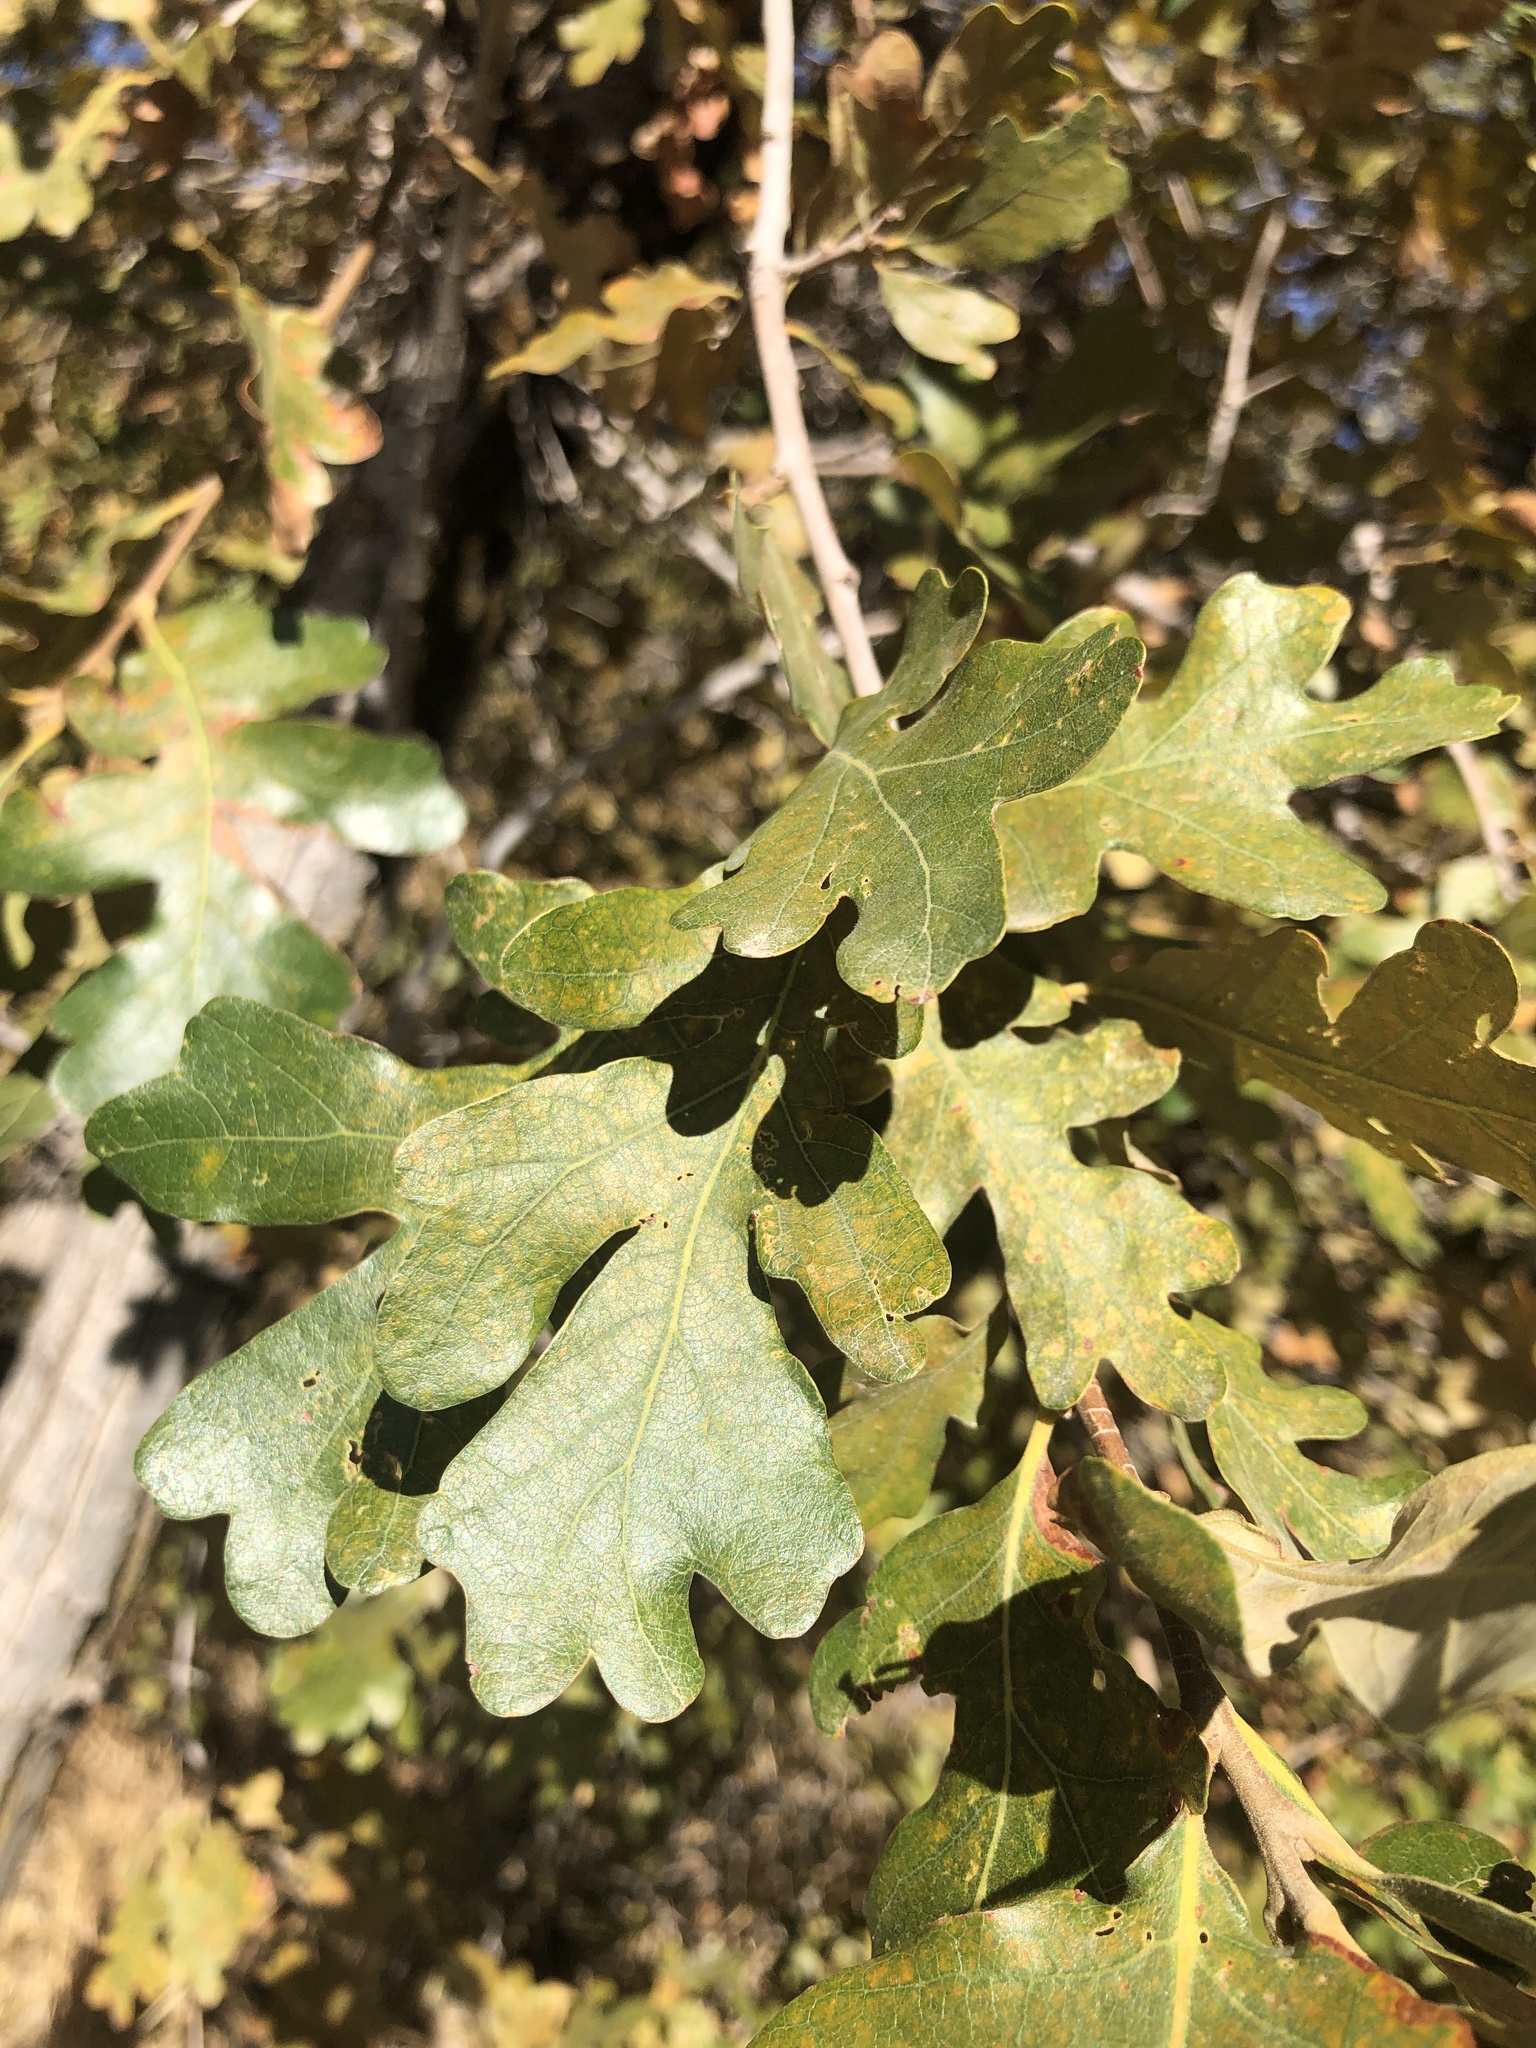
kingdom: Plantae
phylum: Tracheophyta
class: Magnoliopsida
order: Fagales
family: Fagaceae
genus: Quercus
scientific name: Quercus gambelii
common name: Gambel oak
